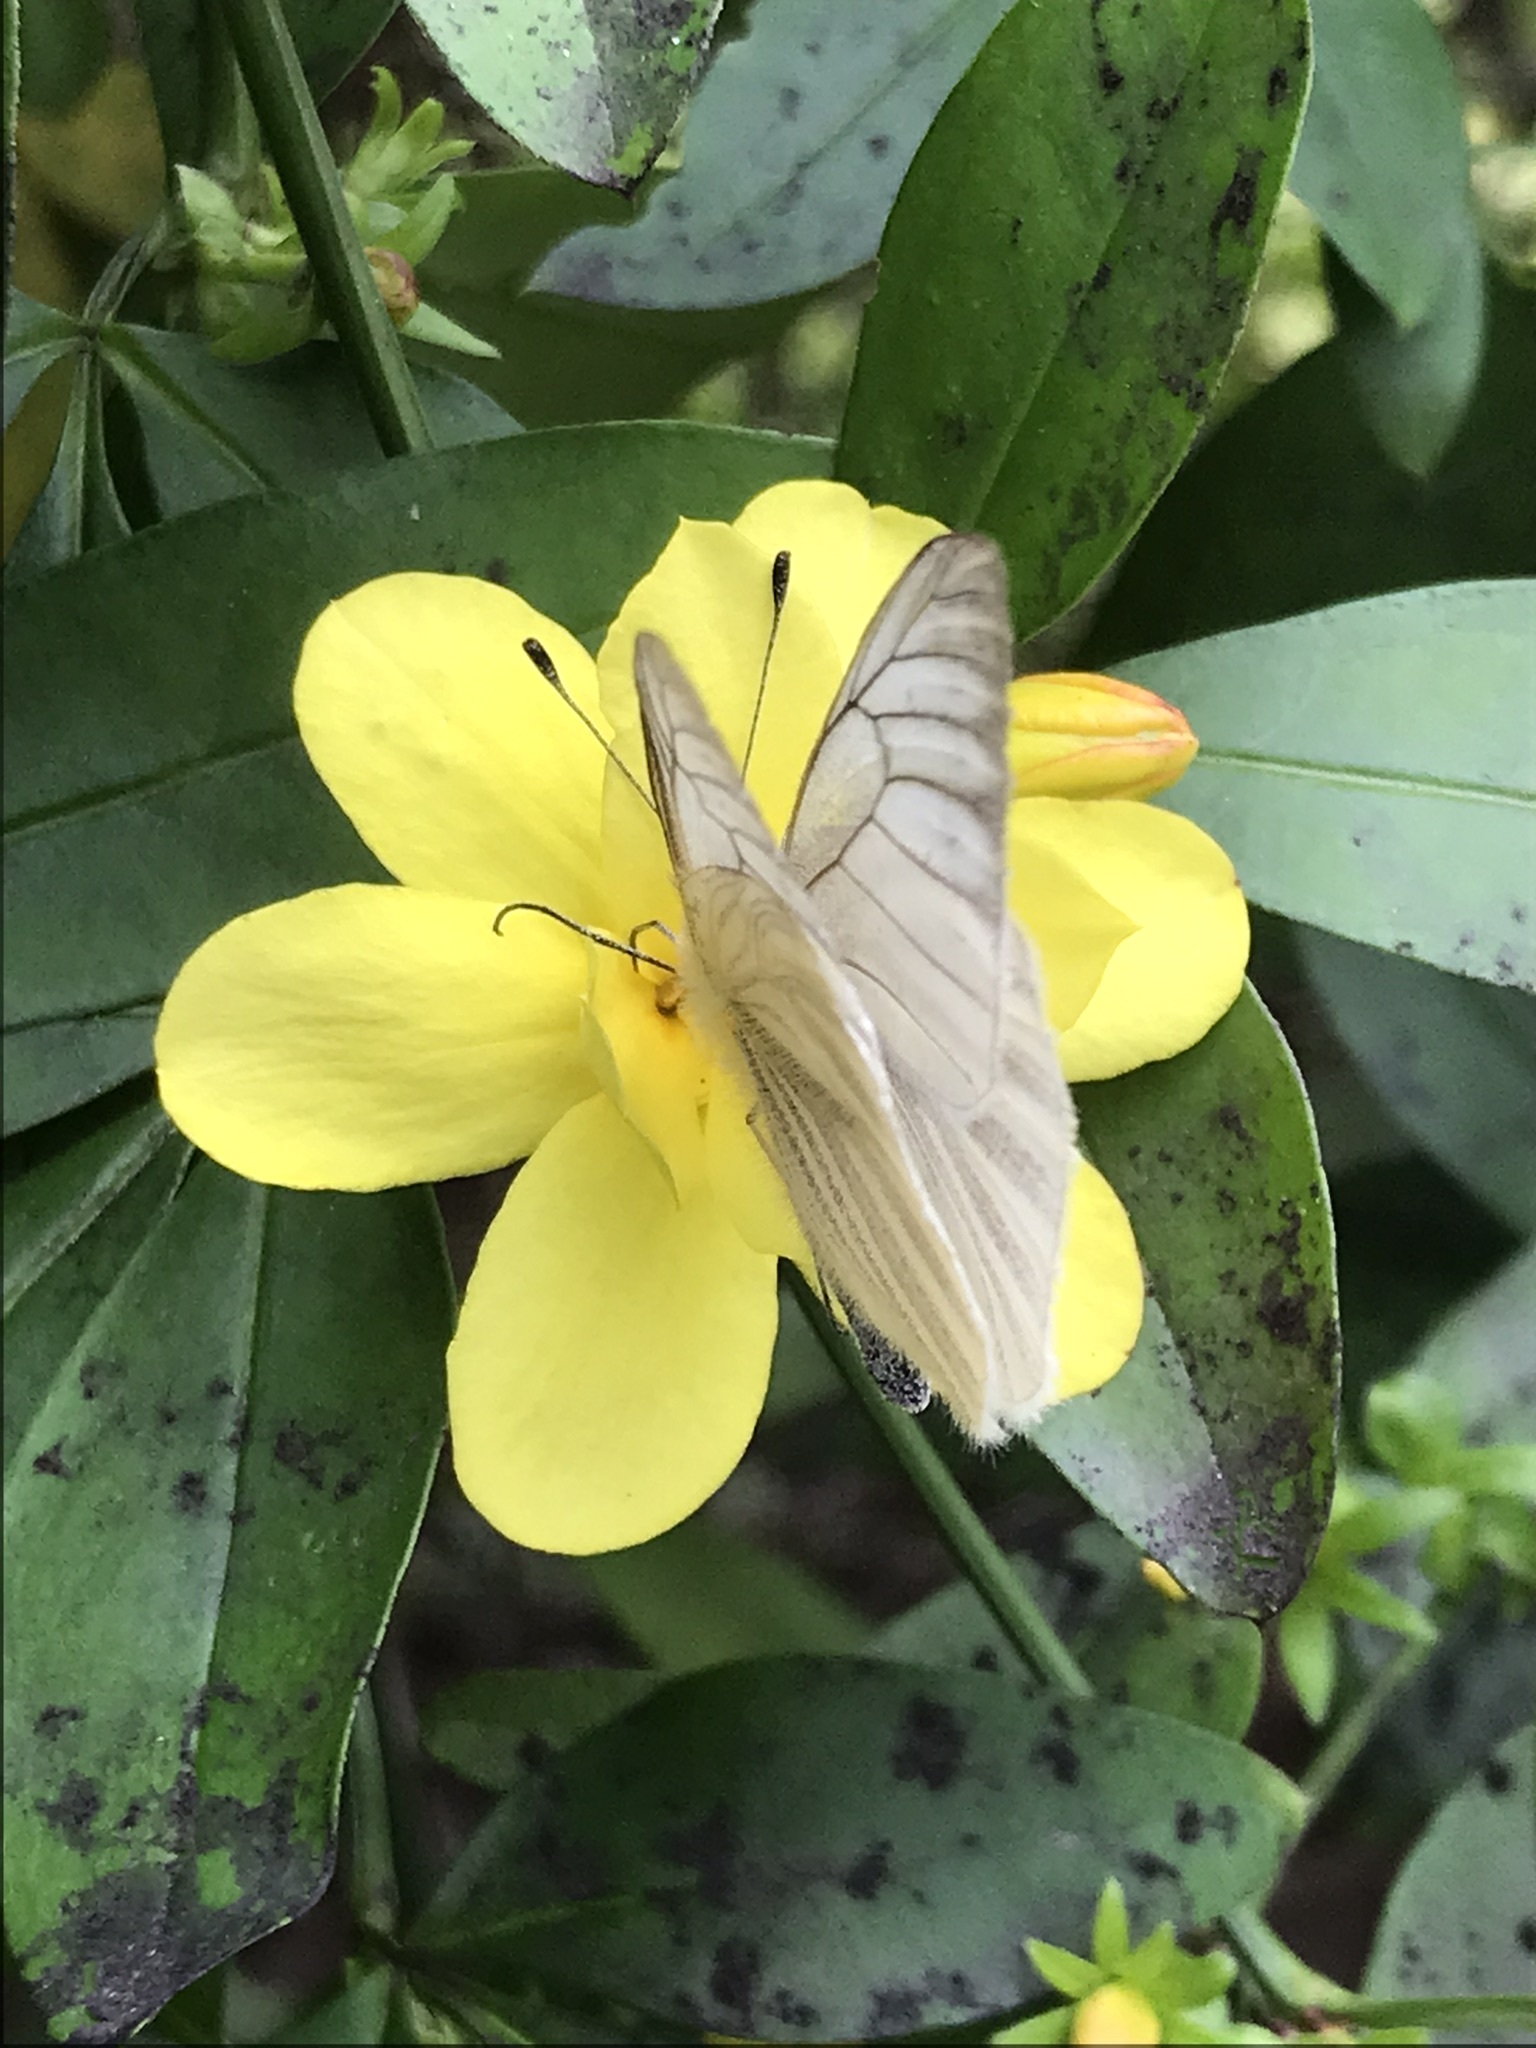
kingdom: Animalia
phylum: Arthropoda
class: Insecta
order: Lepidoptera
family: Pieridae
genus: Theochila
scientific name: Theochila maenacte
